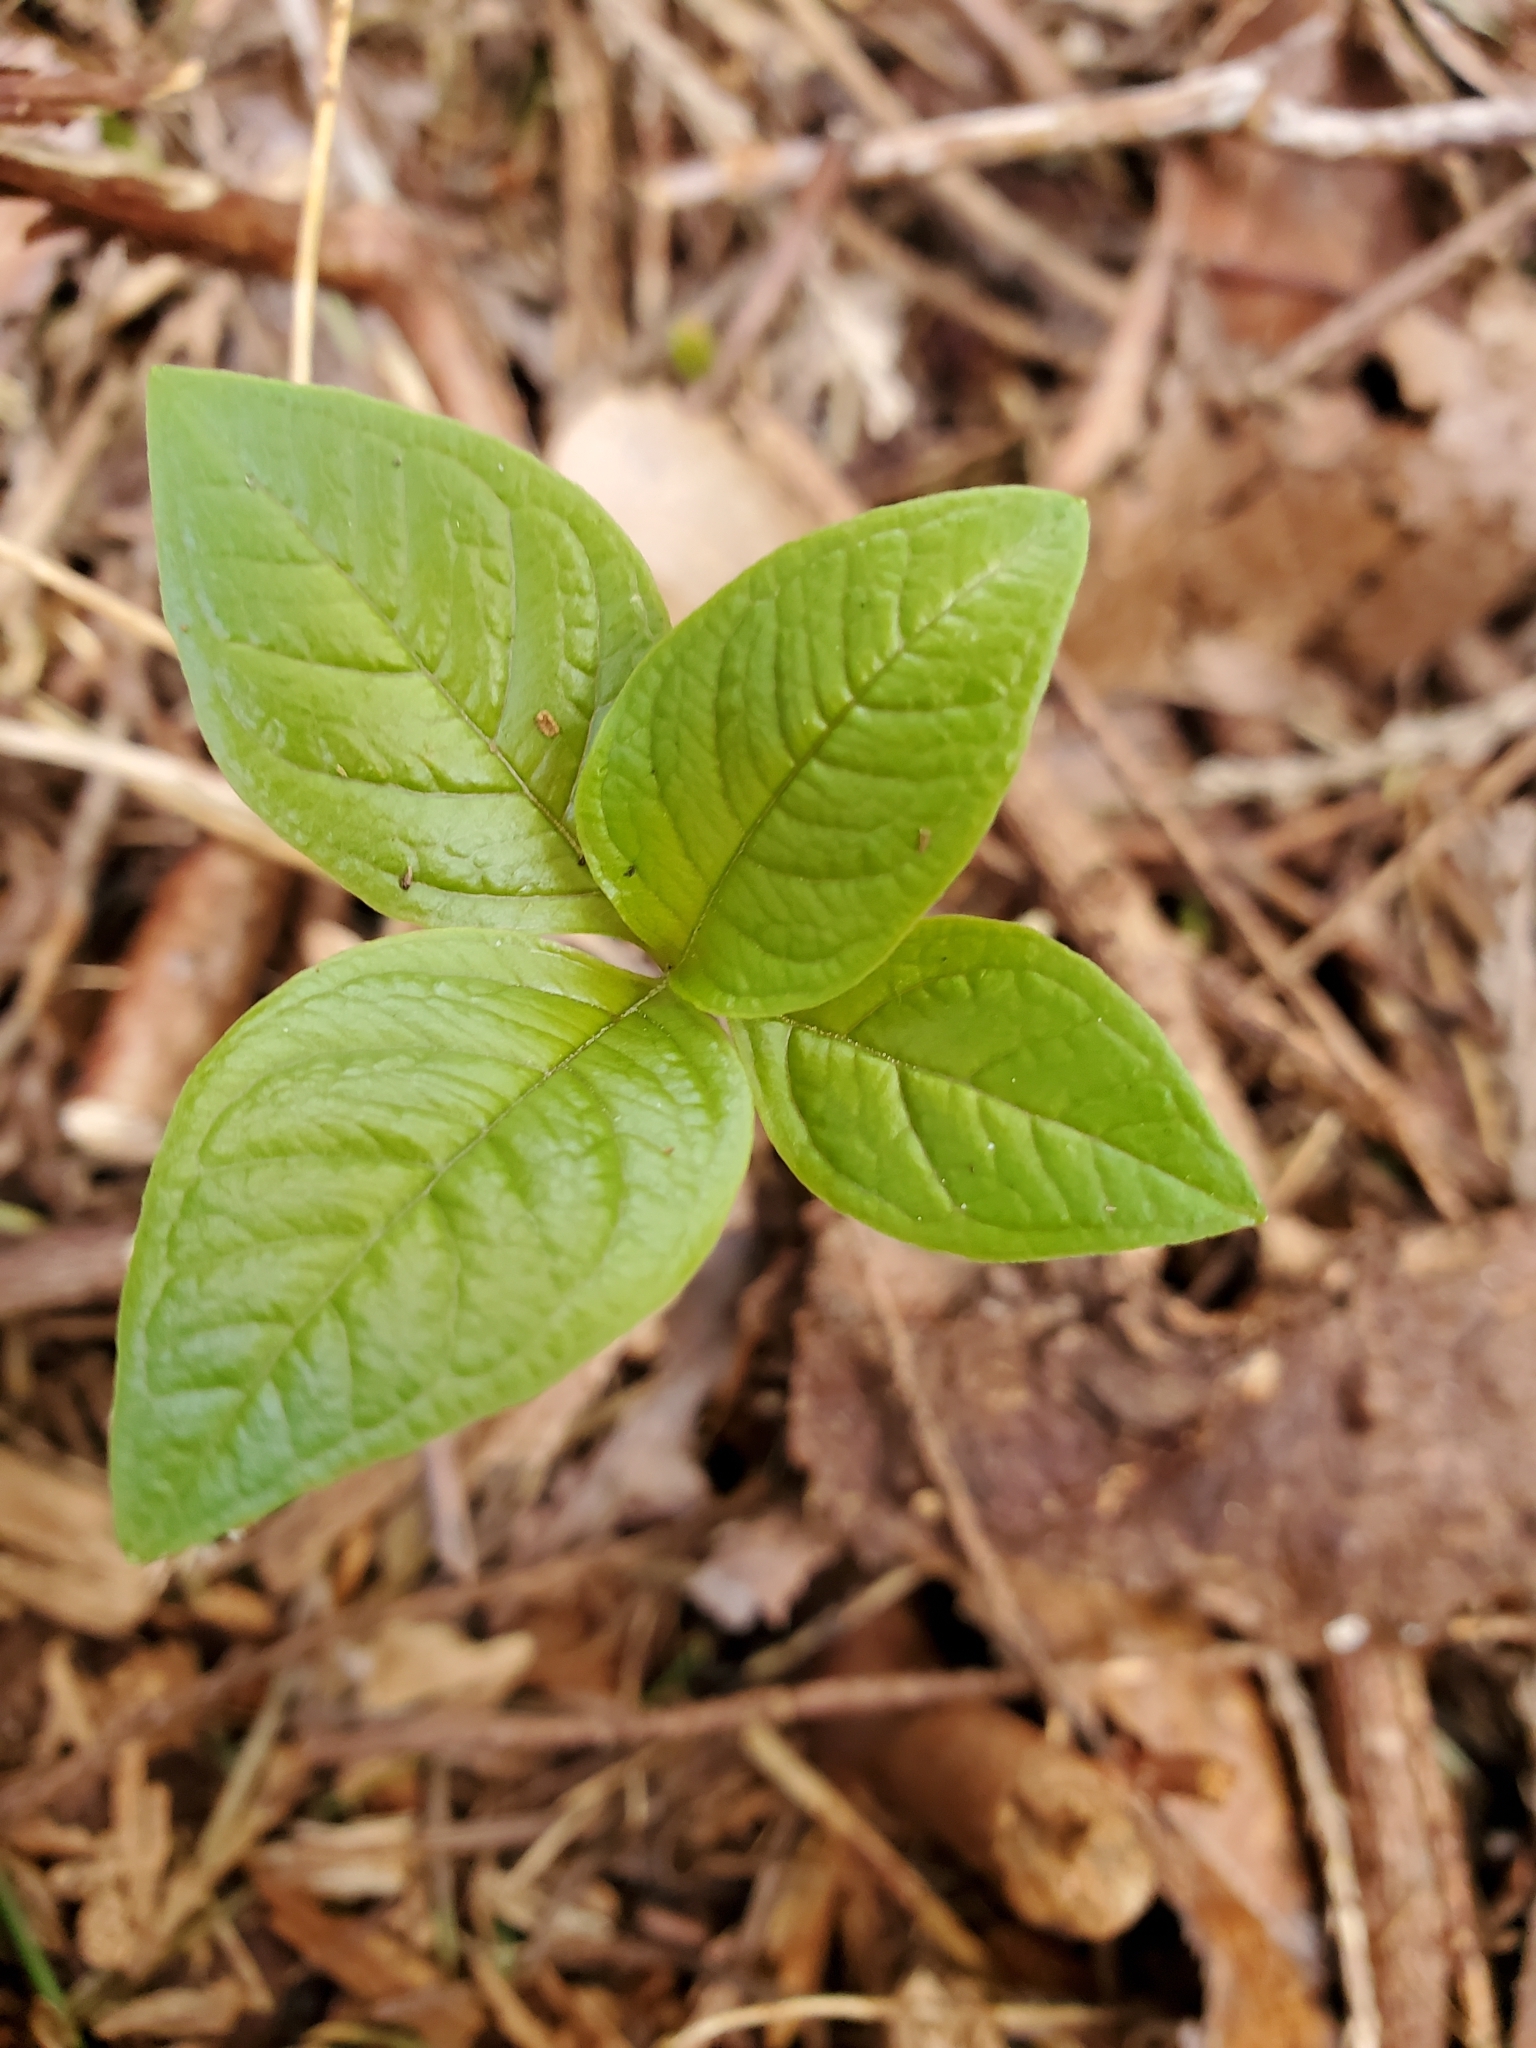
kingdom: Plantae
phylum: Tracheophyta
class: Magnoliopsida
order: Ericales
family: Primulaceae
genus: Lysimachia
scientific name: Lysimachia latifolia
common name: Pacific starflower
